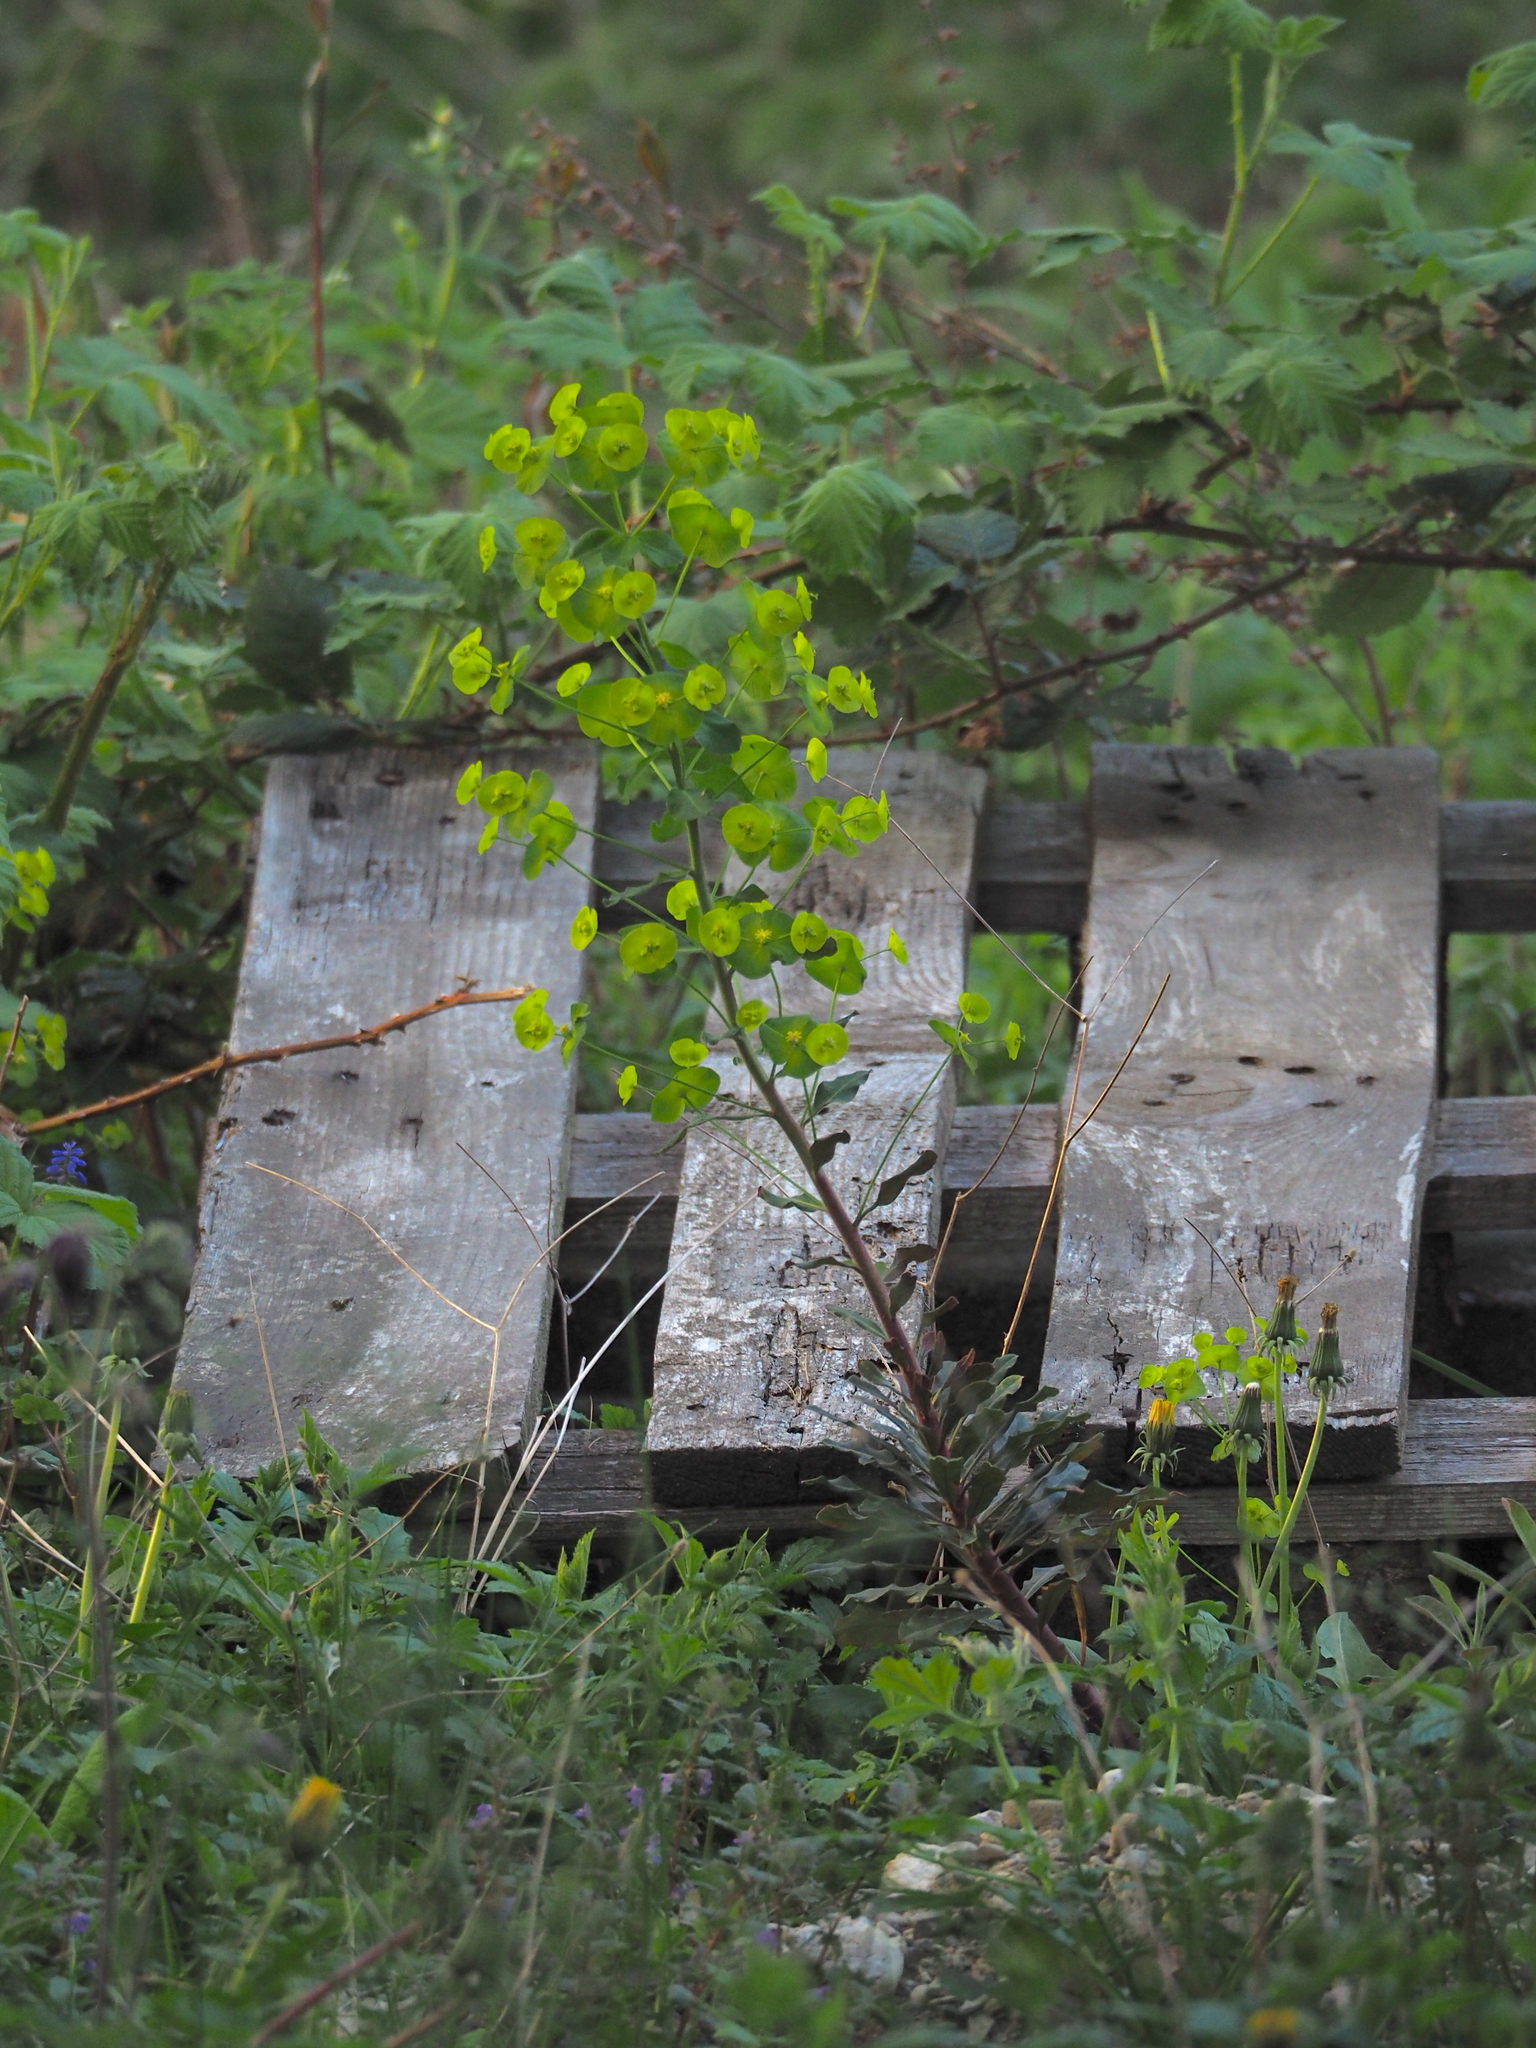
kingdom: Plantae
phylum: Tracheophyta
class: Magnoliopsida
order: Malpighiales
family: Euphorbiaceae
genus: Euphorbia
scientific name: Euphorbia amygdaloides
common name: Wood spurge
